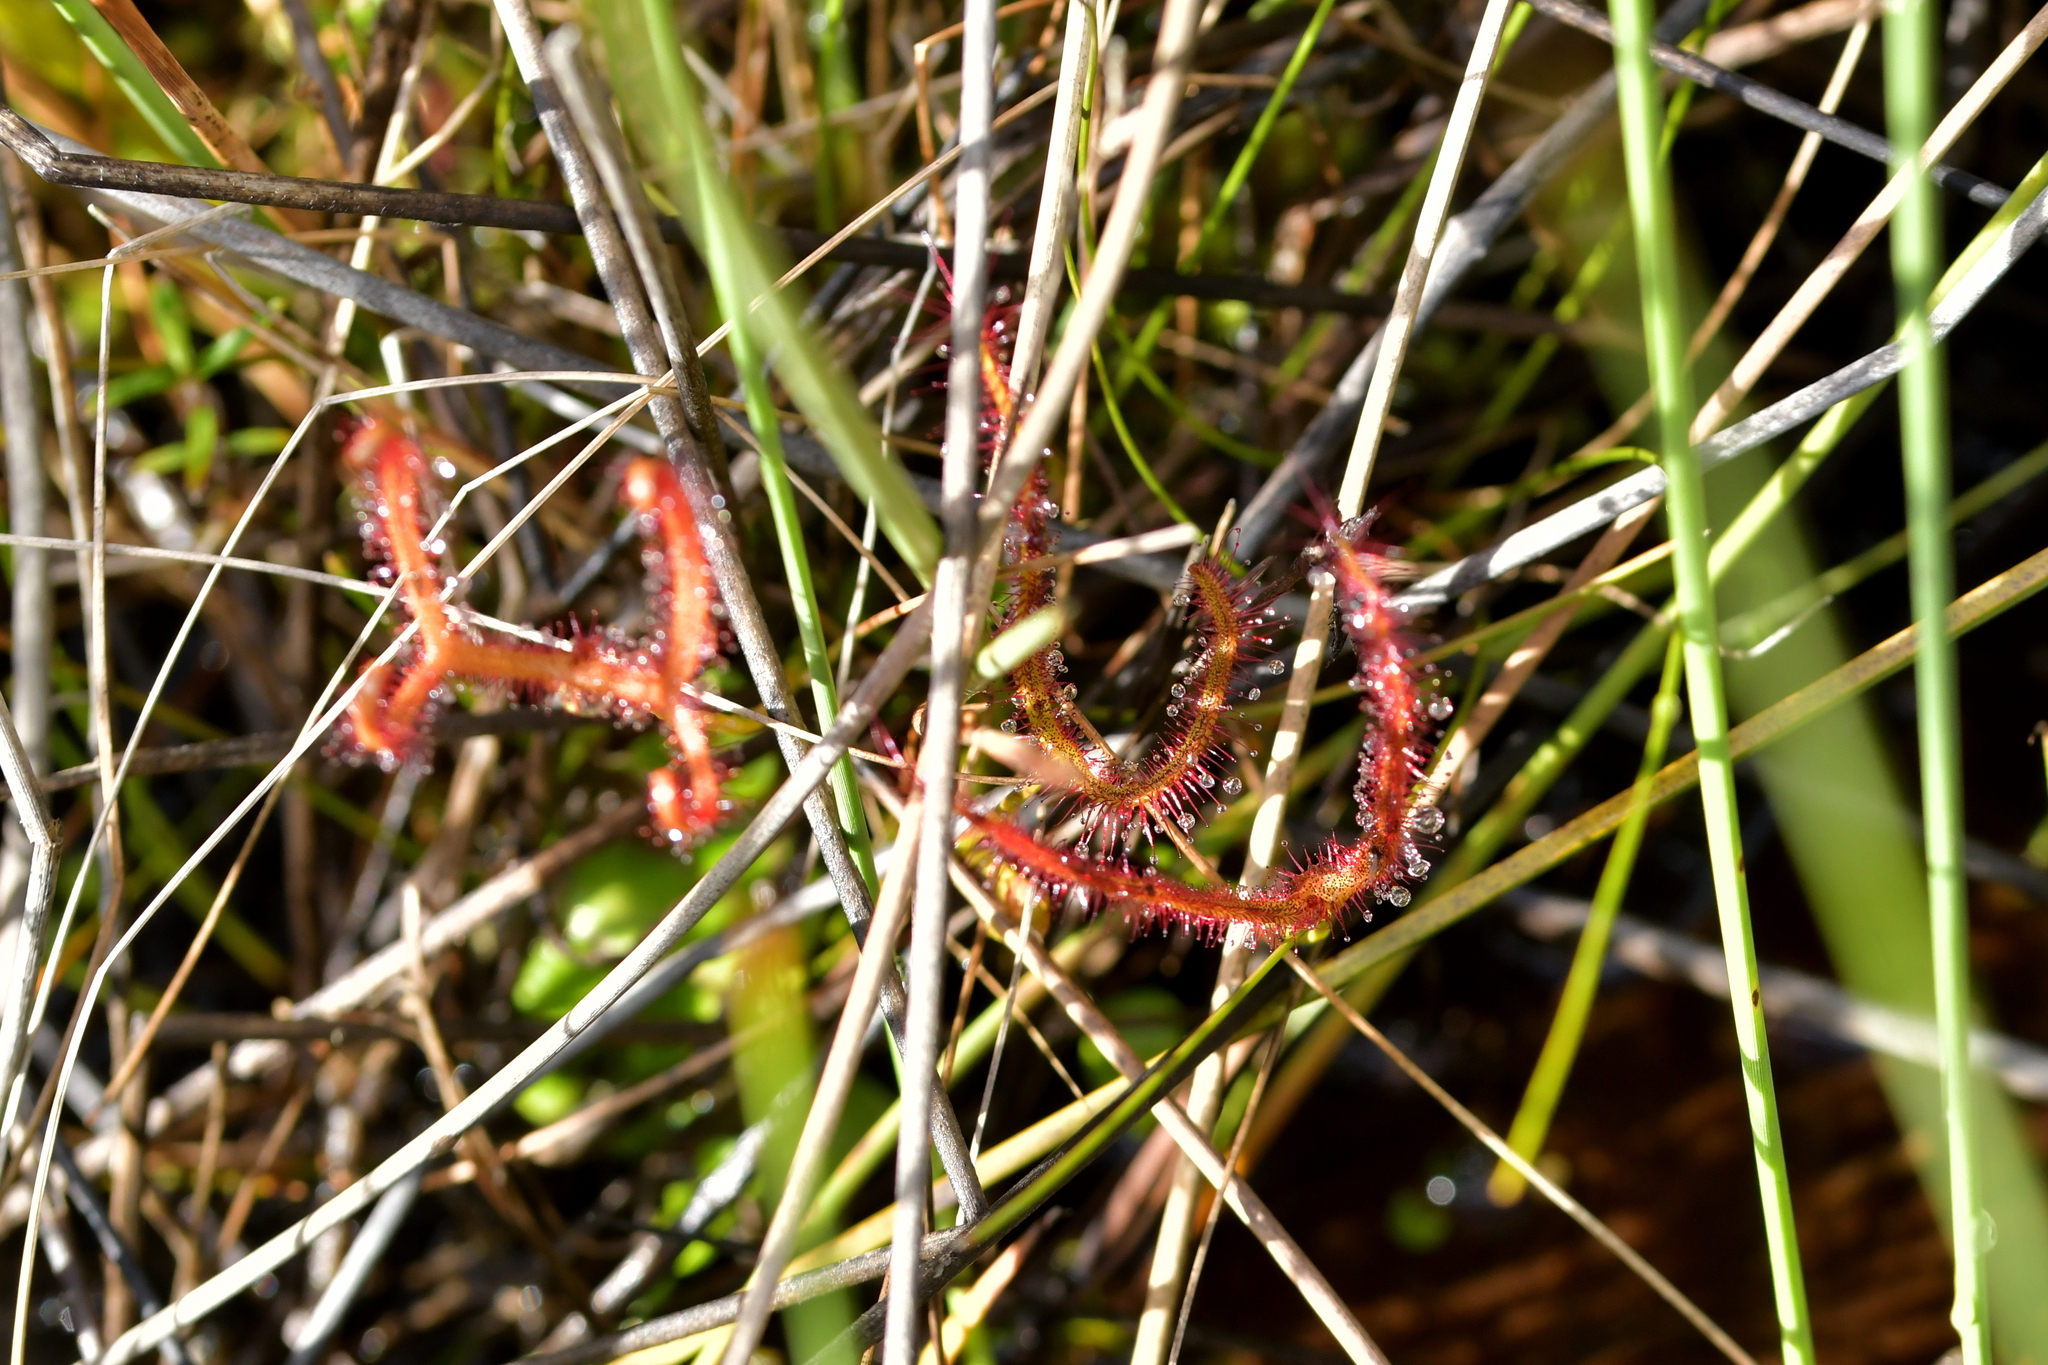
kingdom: Plantae
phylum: Tracheophyta
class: Magnoliopsida
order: Caryophyllales
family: Droseraceae
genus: Drosera
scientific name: Drosera binata
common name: Forked sundew
